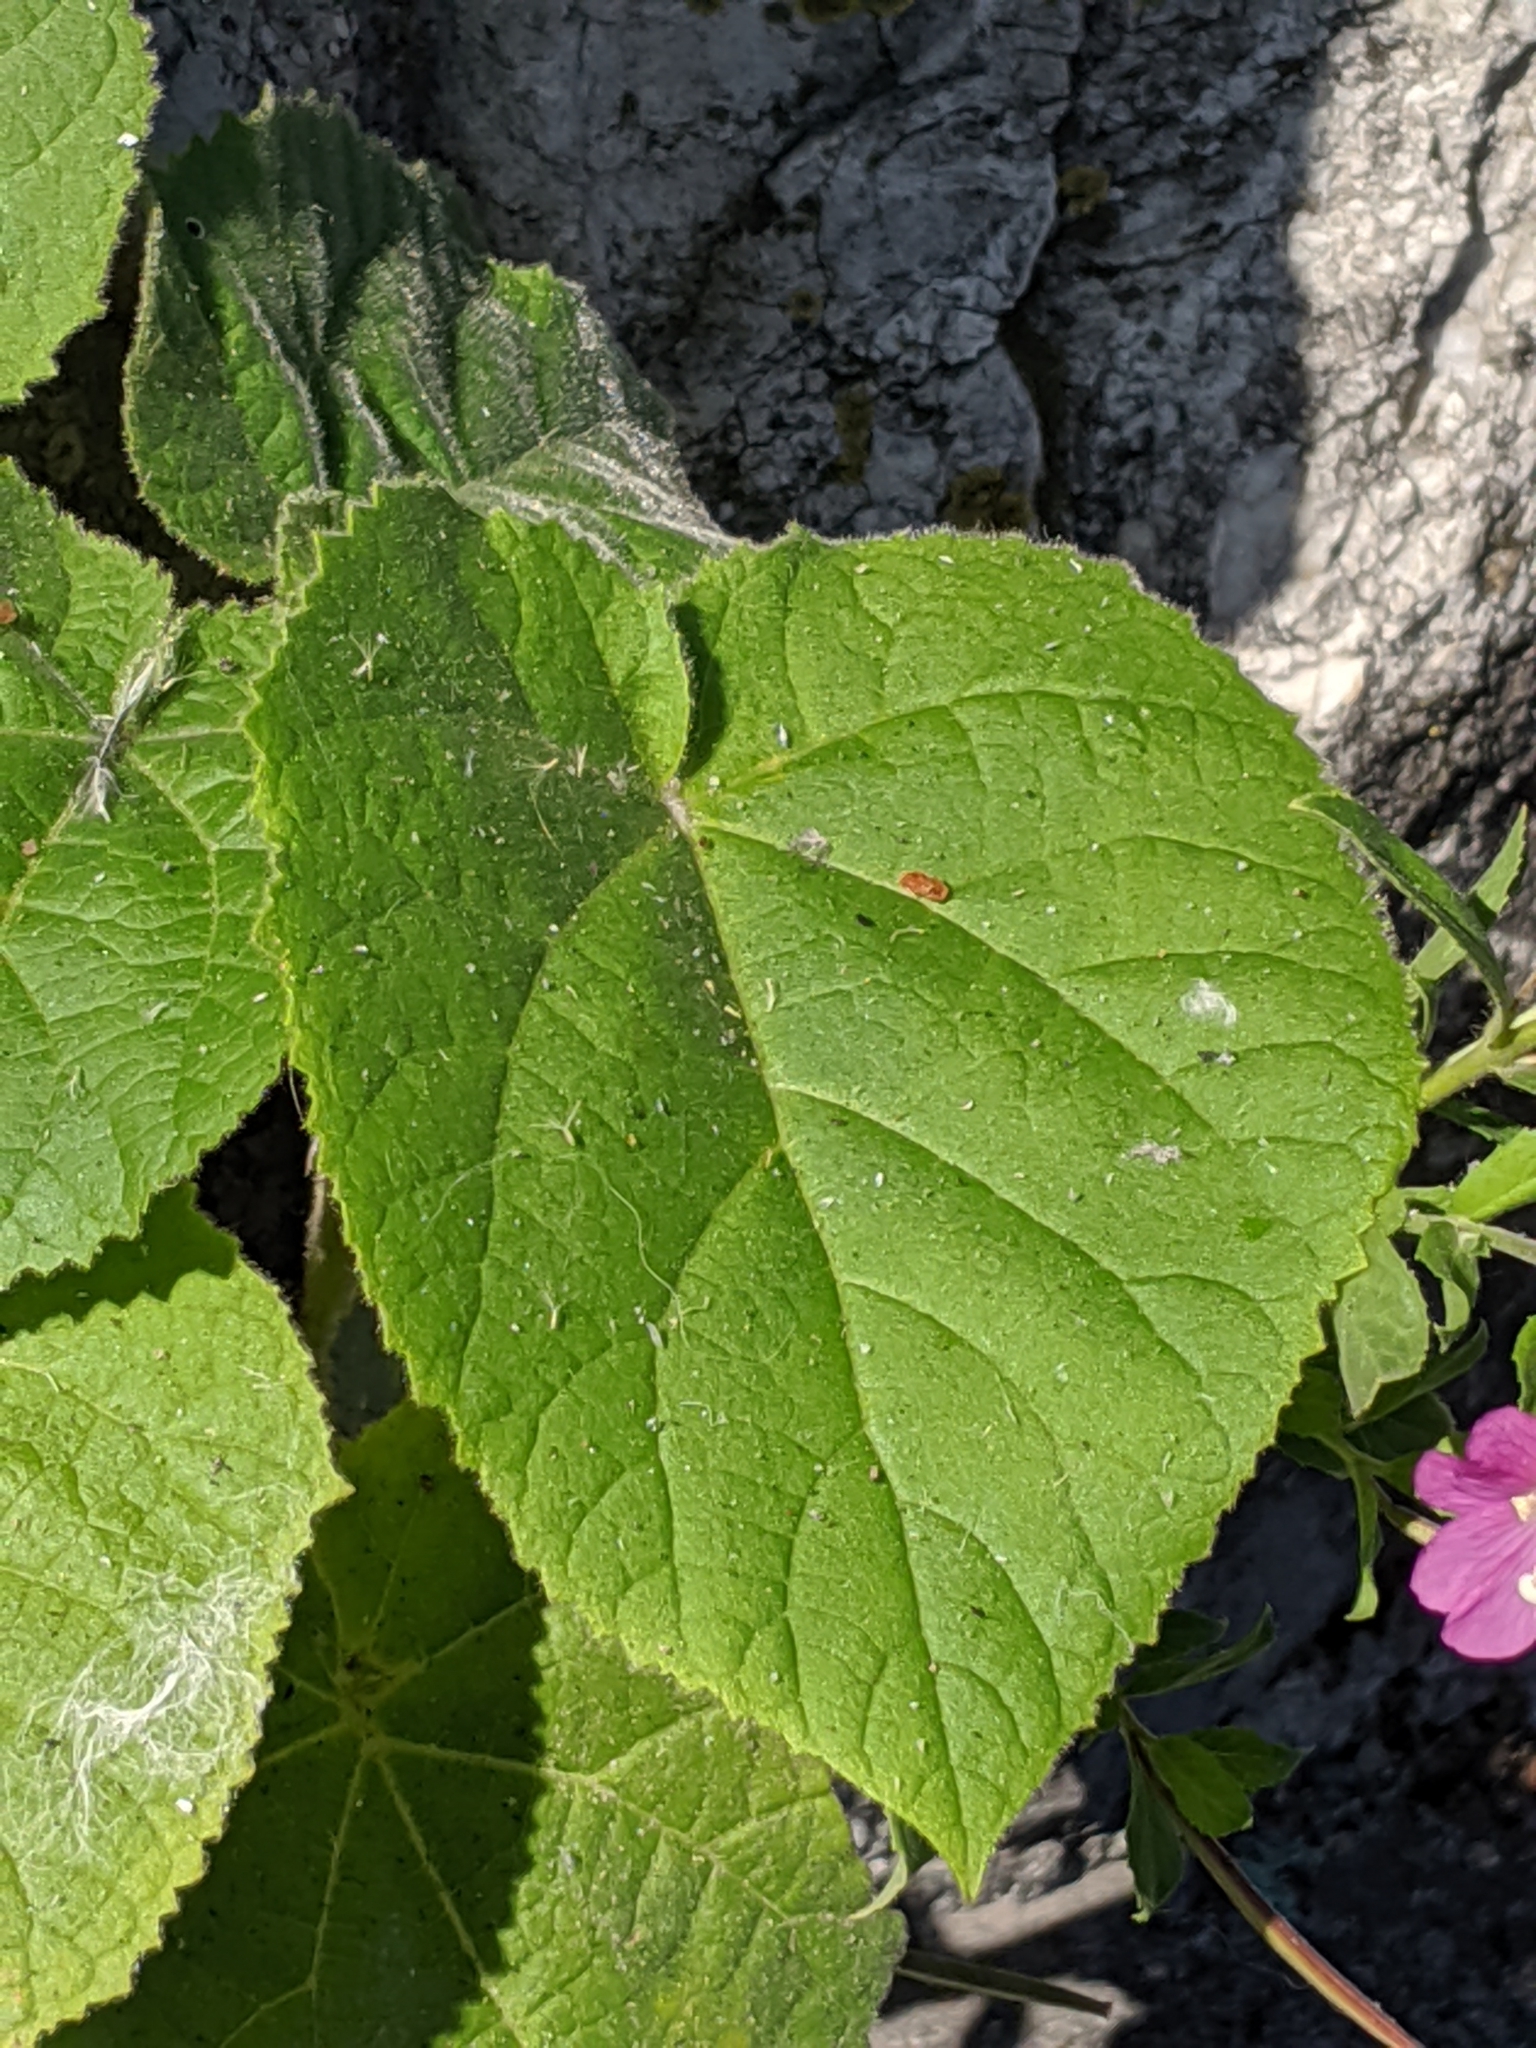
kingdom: Plantae
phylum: Tracheophyta
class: Magnoliopsida
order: Myrtales
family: Onagraceae
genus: Epilobium
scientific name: Epilobium hirsutum
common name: Great willowherb
